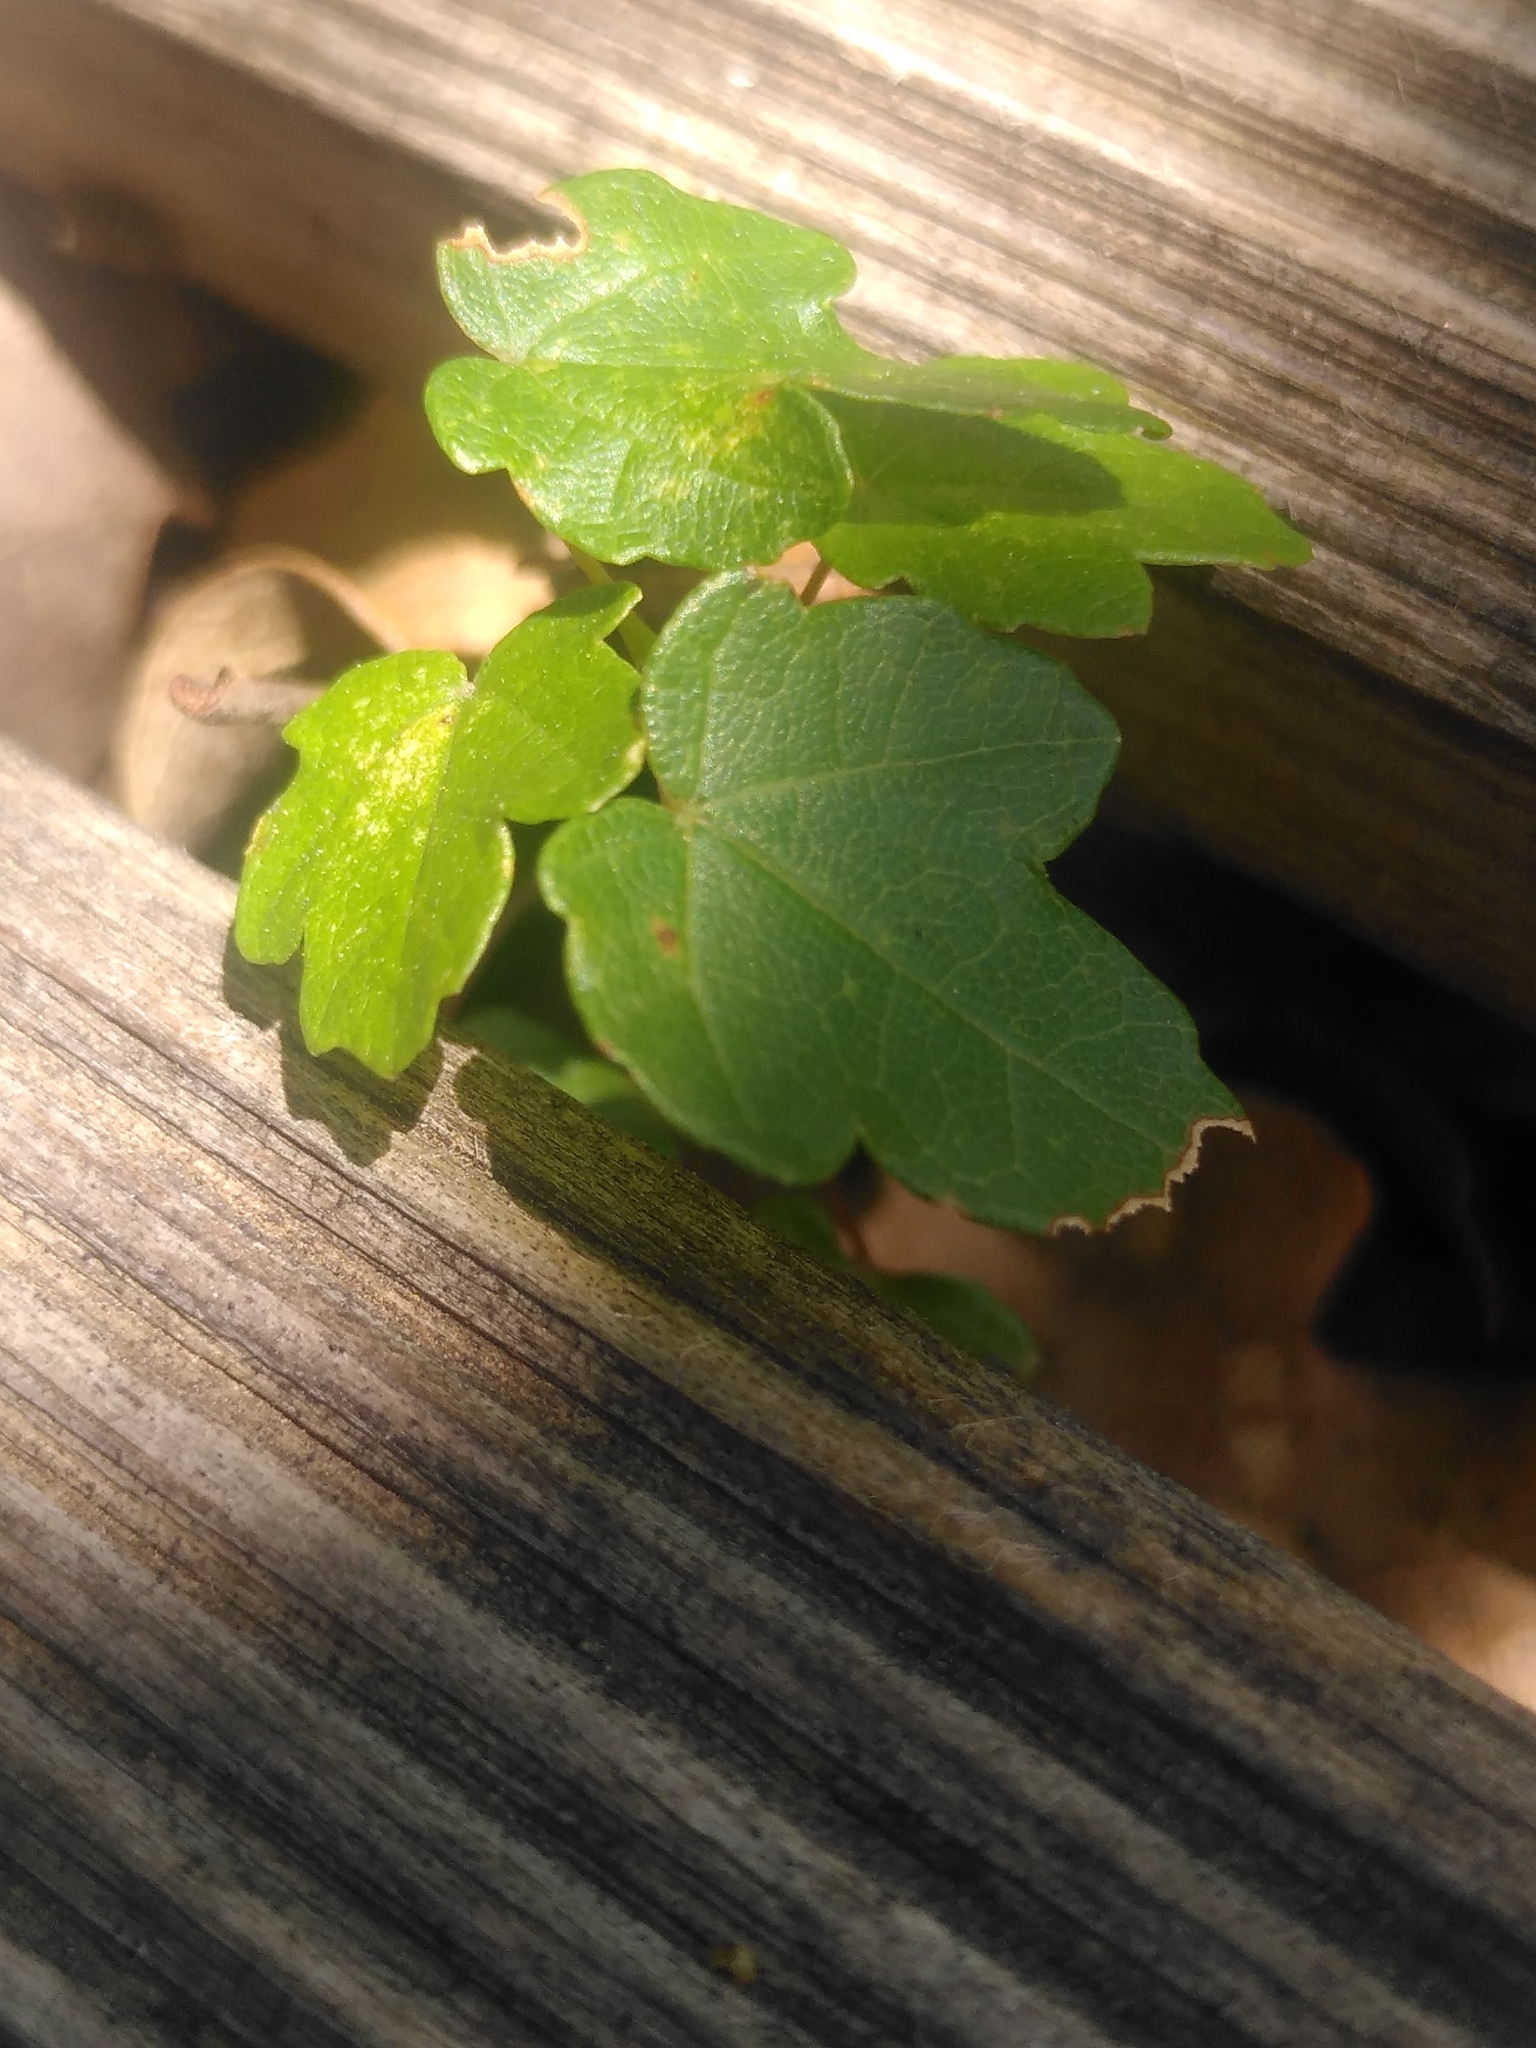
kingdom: Plantae
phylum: Tracheophyta
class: Magnoliopsida
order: Sapindales
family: Sapindaceae
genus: Acer
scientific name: Acer monspessulanum
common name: Montpellier maple
